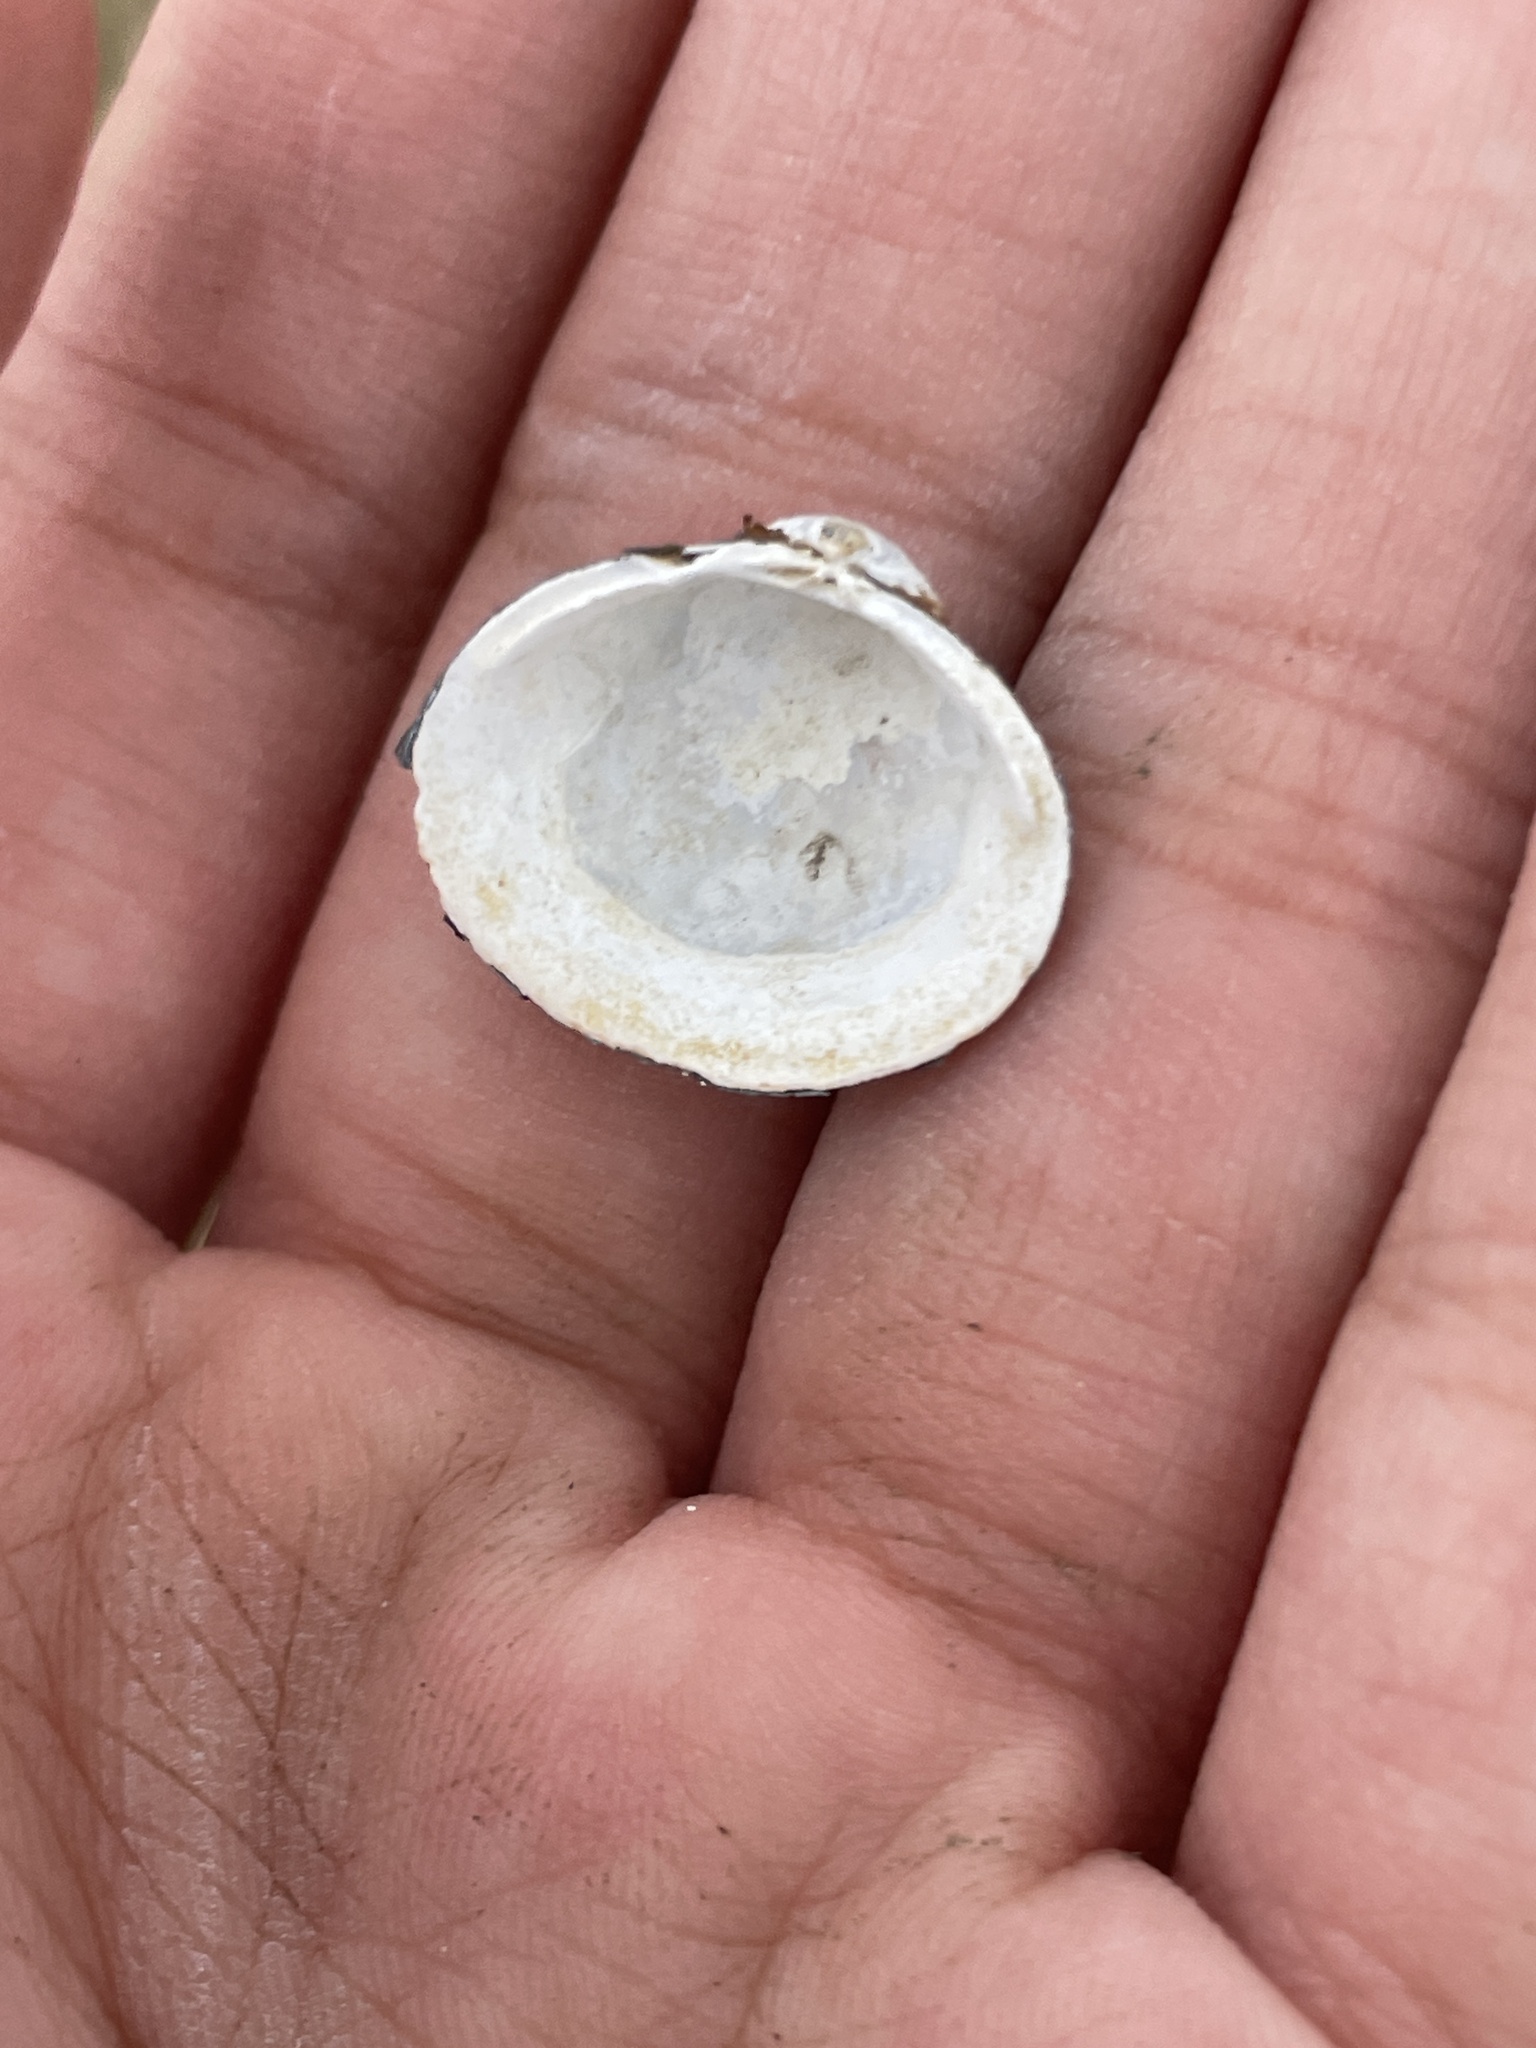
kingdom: Animalia
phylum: Mollusca
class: Bivalvia
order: Venerida
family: Cyrenidae
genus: Corbicula
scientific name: Corbicula fluminea
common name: Asian clam
